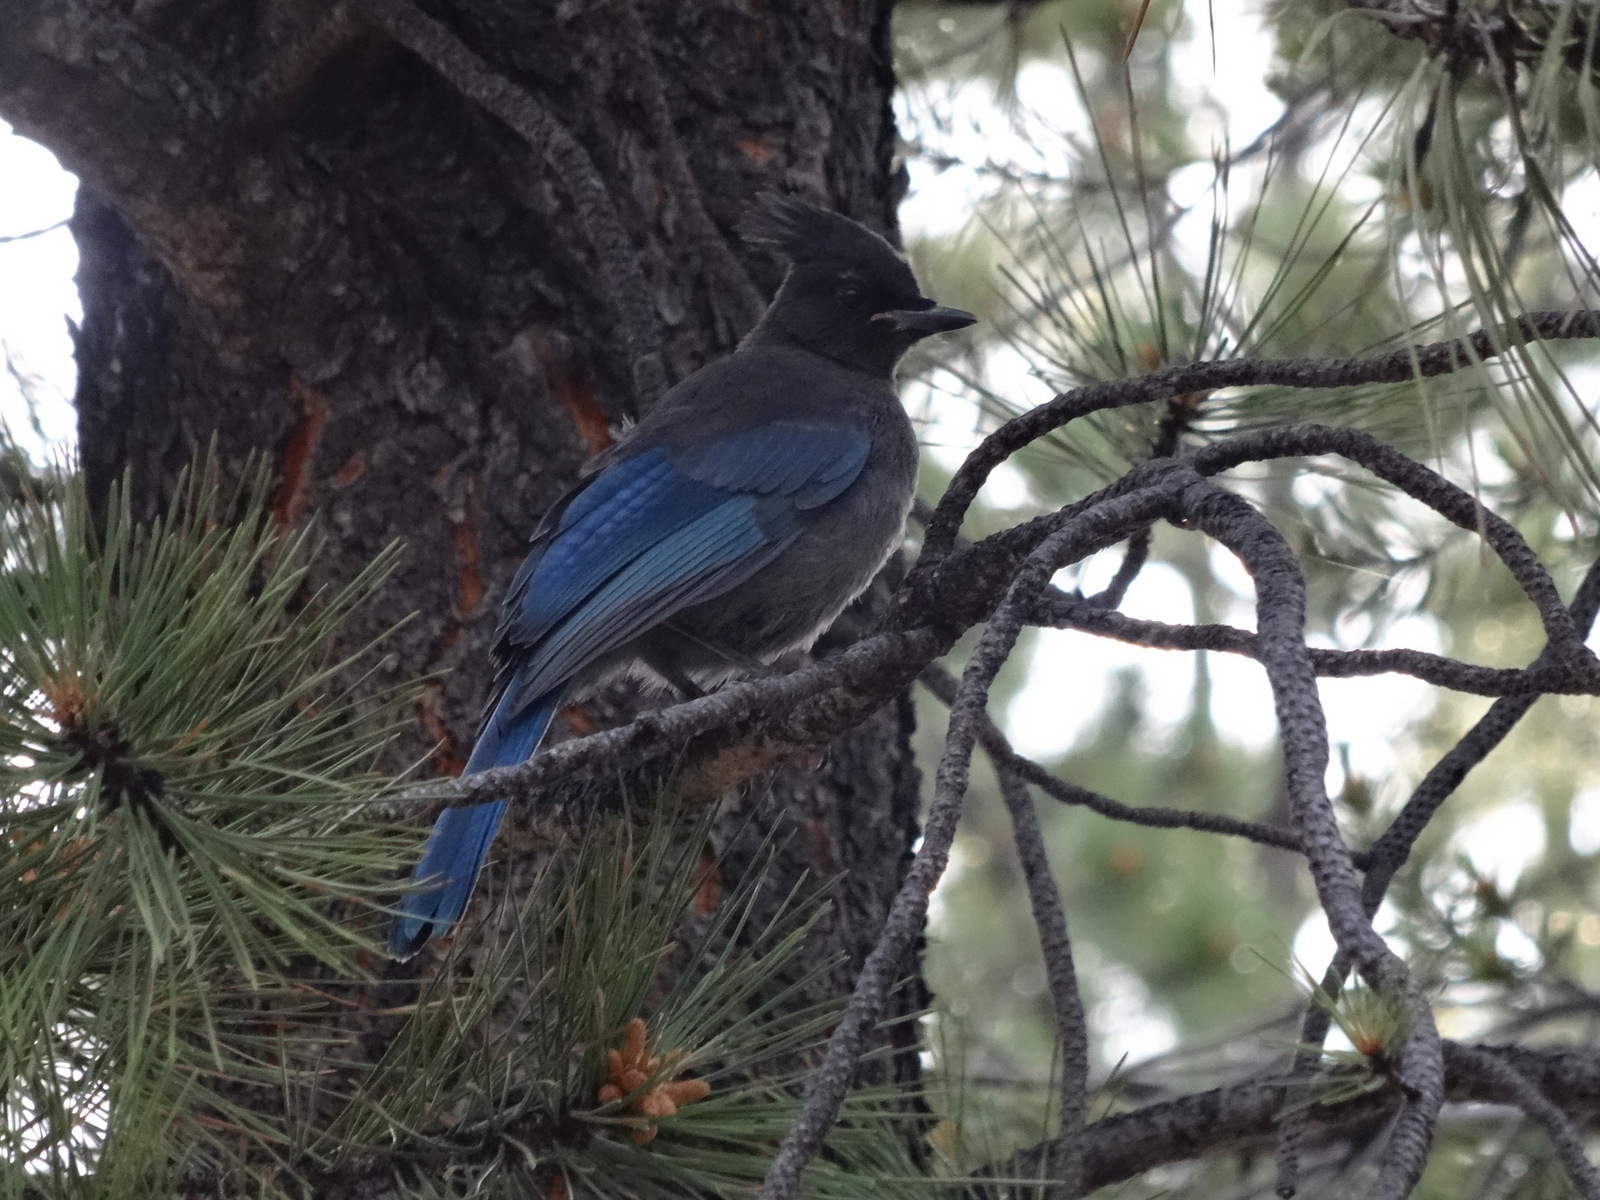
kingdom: Animalia
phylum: Chordata
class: Aves
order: Passeriformes
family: Corvidae
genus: Cyanocitta
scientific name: Cyanocitta stelleri
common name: Steller's jay
